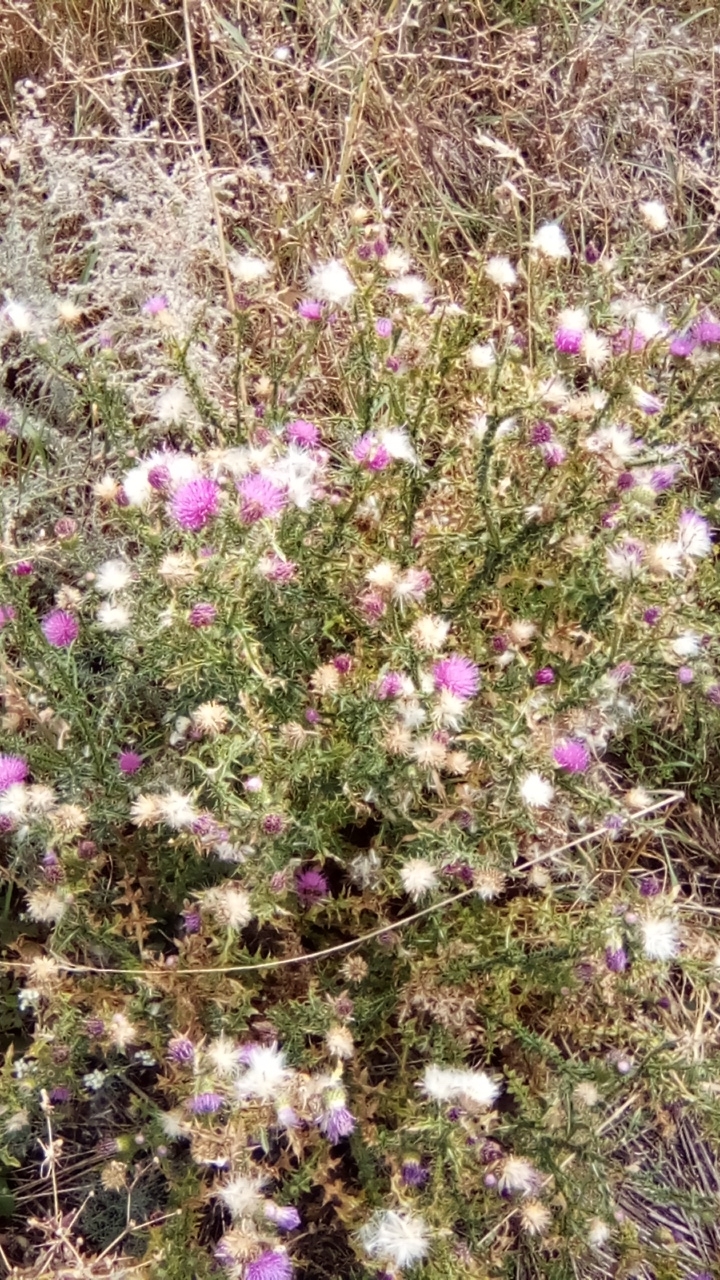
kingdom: Plantae
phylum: Tracheophyta
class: Magnoliopsida
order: Asterales
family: Asteraceae
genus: Carduus
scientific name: Carduus acanthoides
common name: Plumeless thistle
